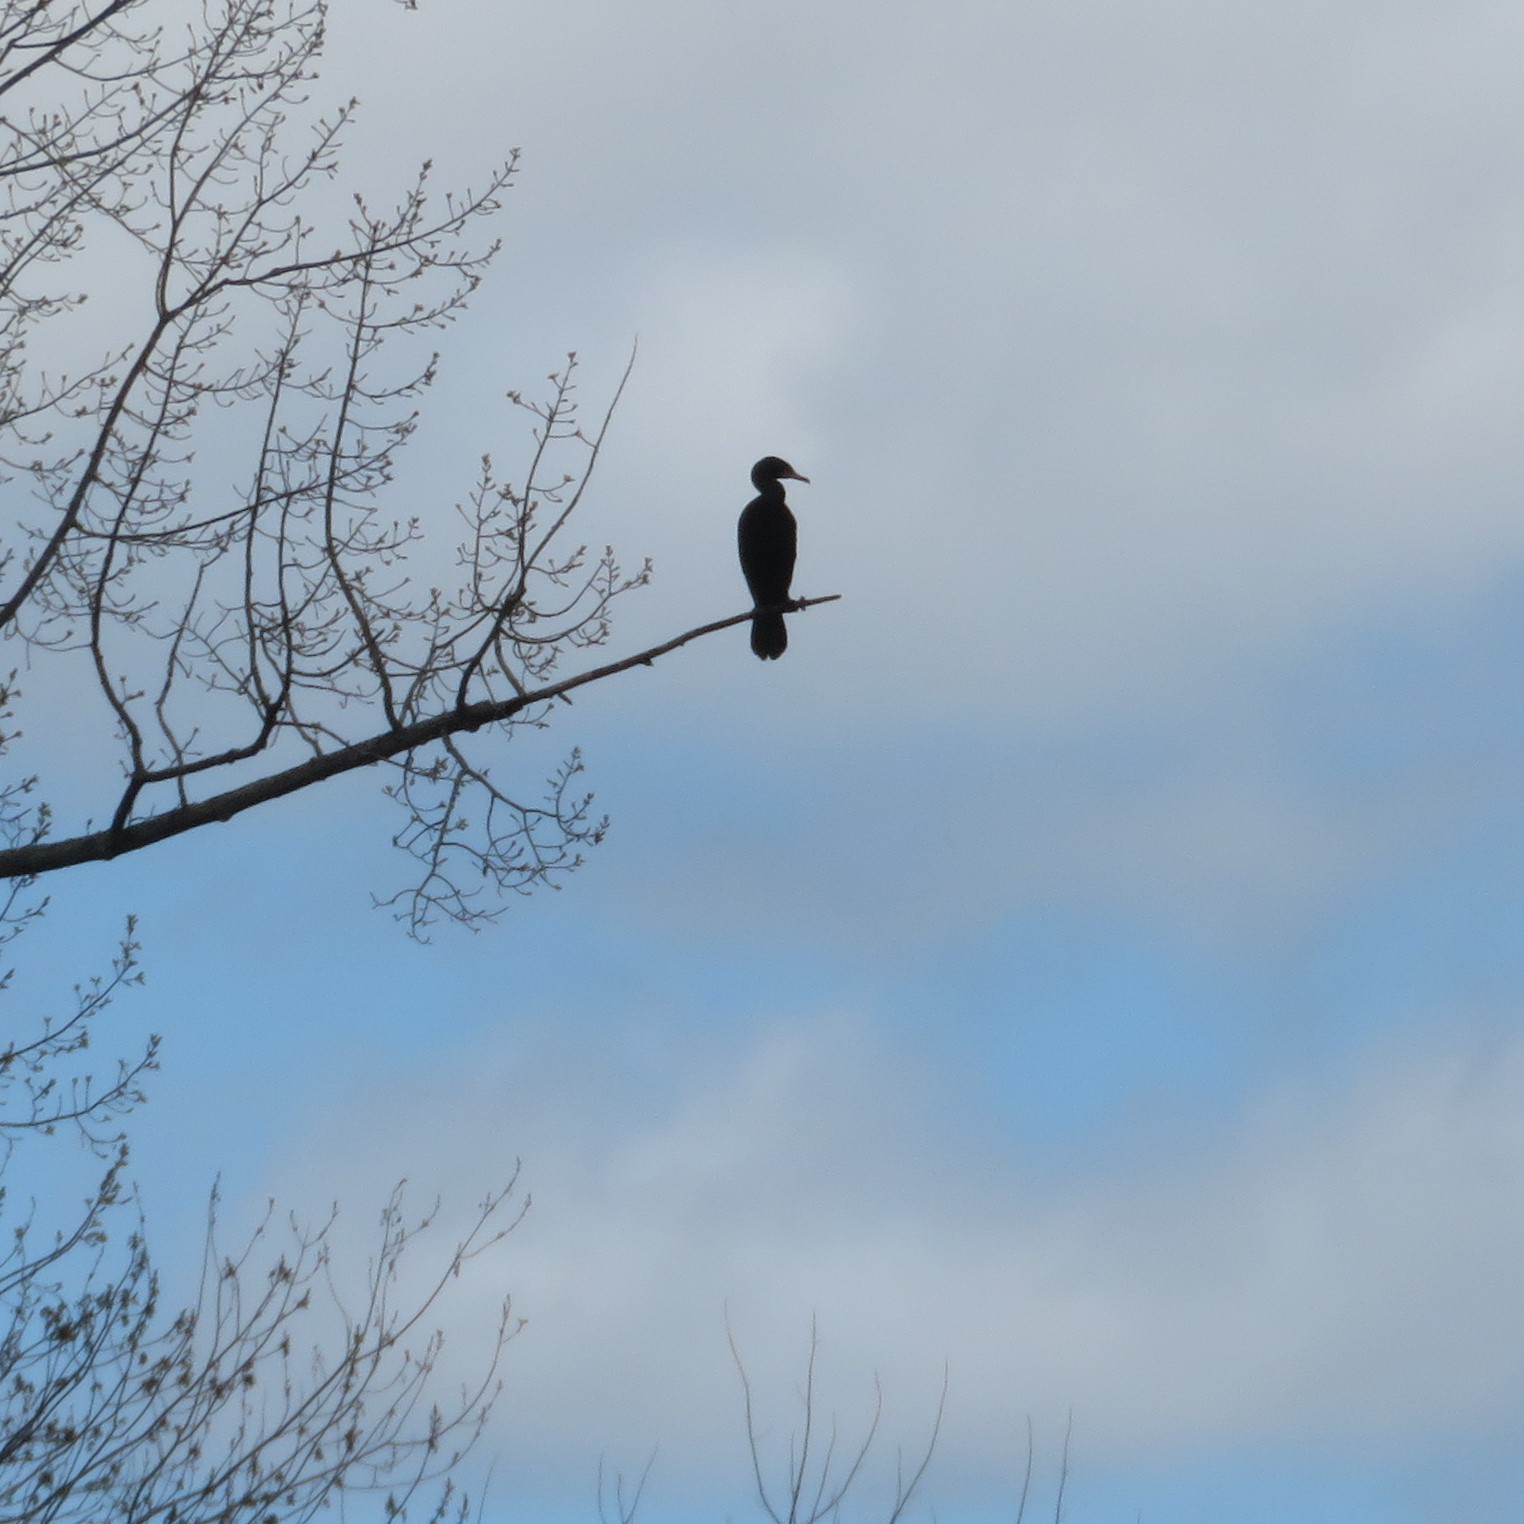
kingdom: Animalia
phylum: Chordata
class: Aves
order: Suliformes
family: Phalacrocoracidae
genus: Phalacrocorax
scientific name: Phalacrocorax auritus
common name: Double-crested cormorant
